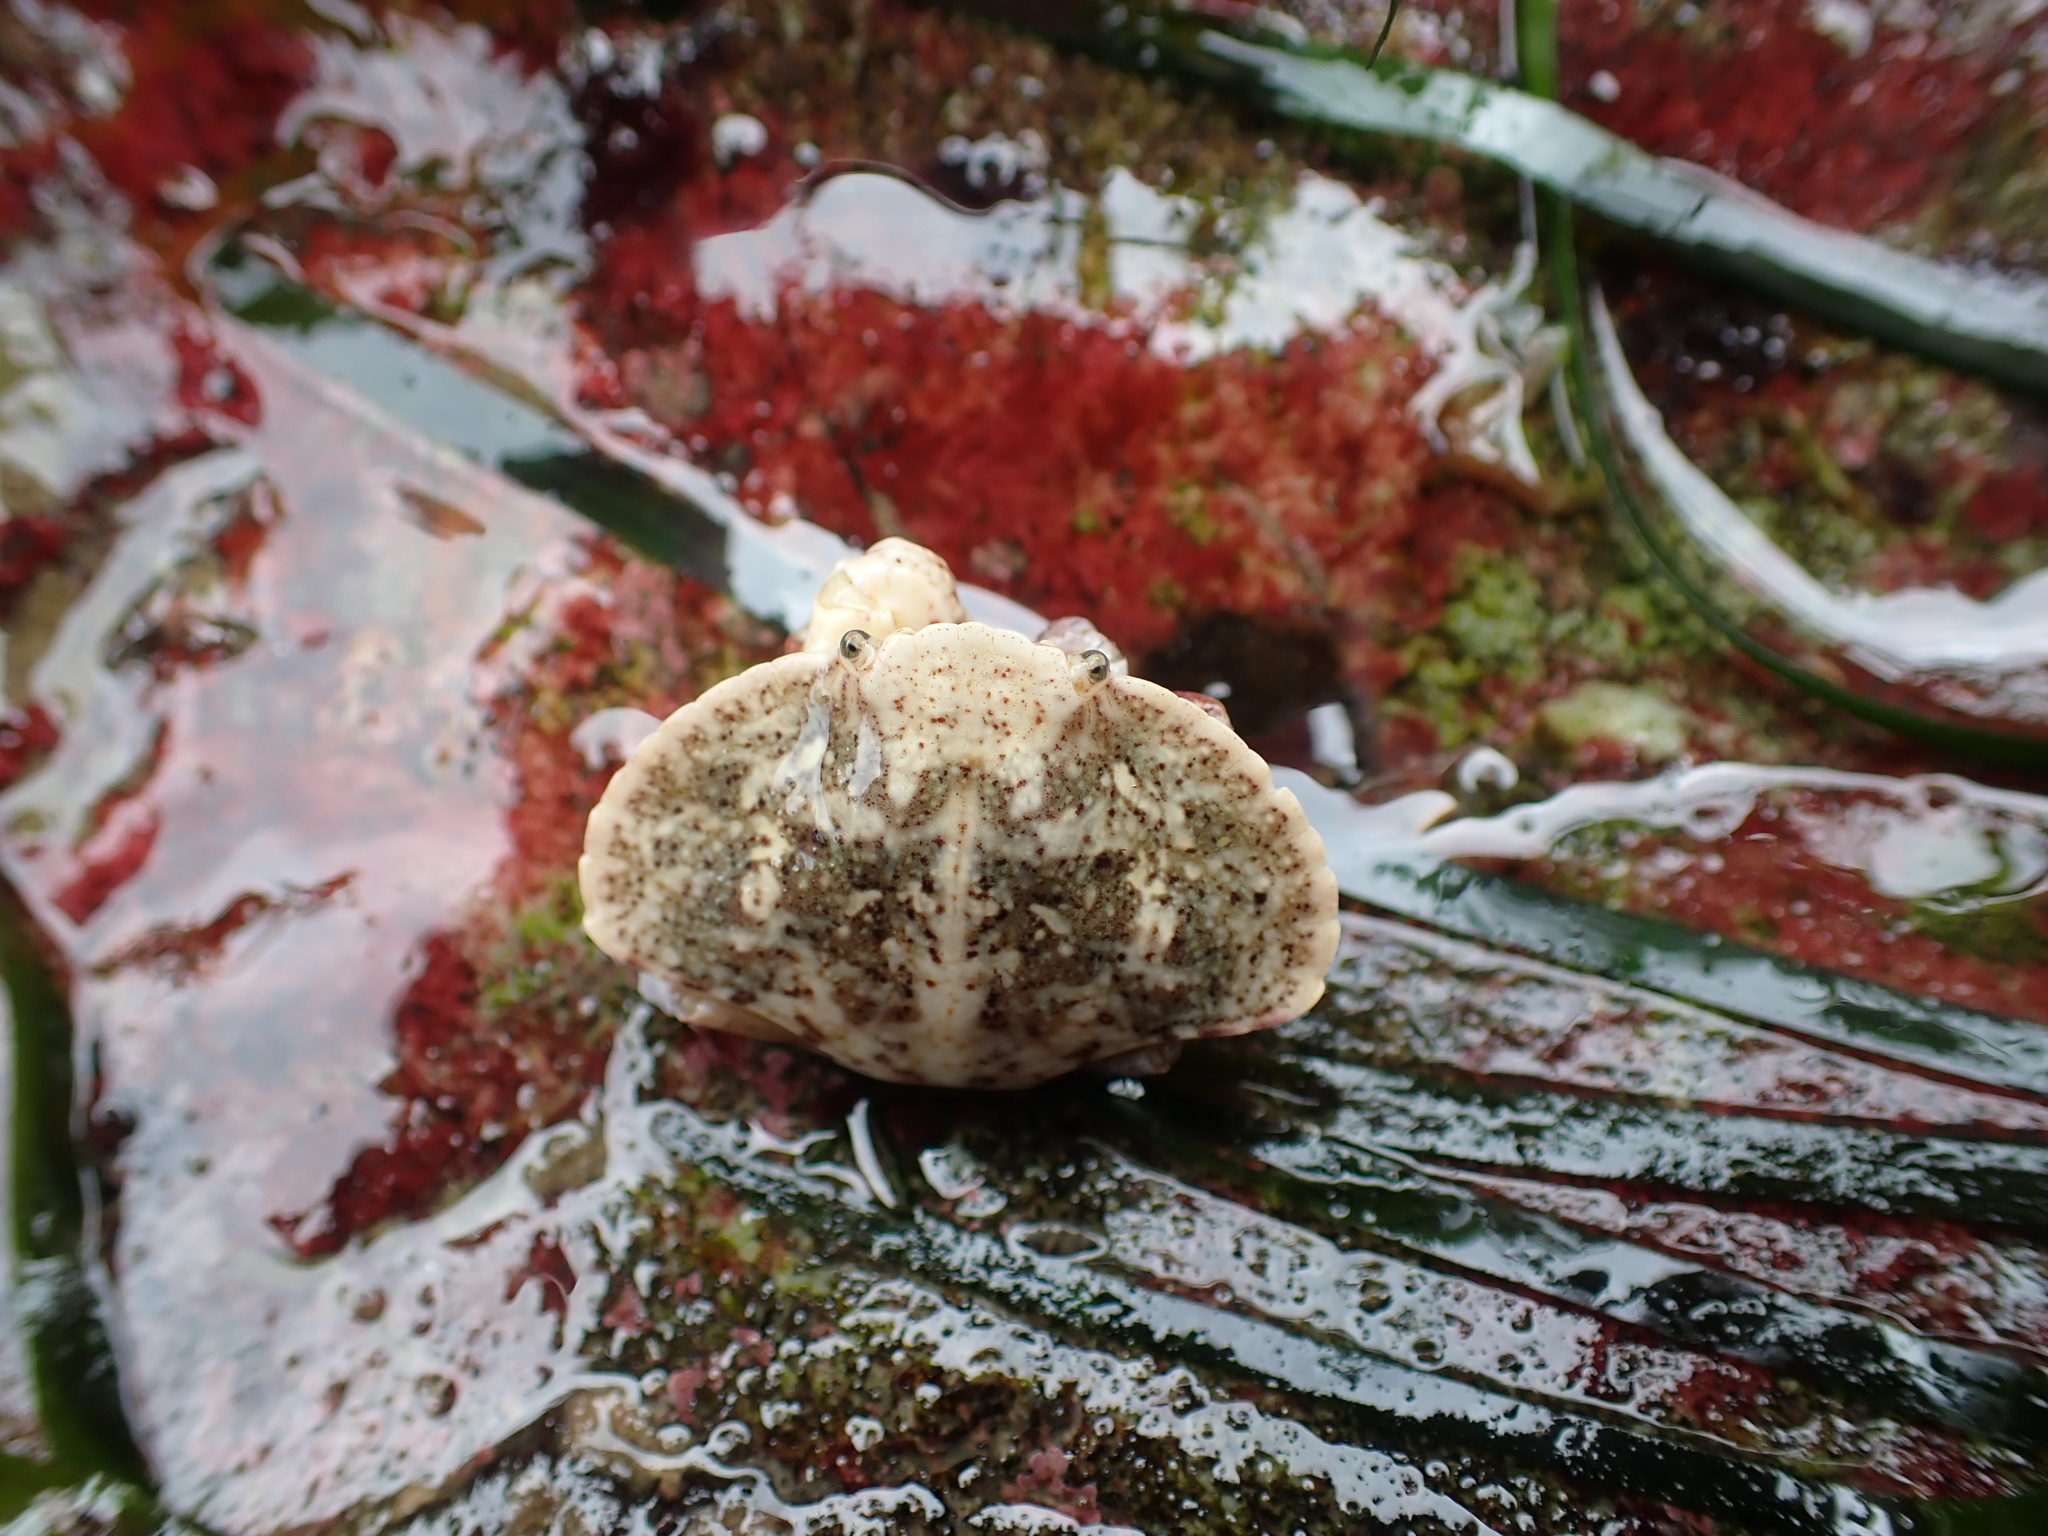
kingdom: Animalia
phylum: Arthropoda
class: Malacostraca
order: Decapoda
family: Cancridae
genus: Cancer
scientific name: Cancer productus
